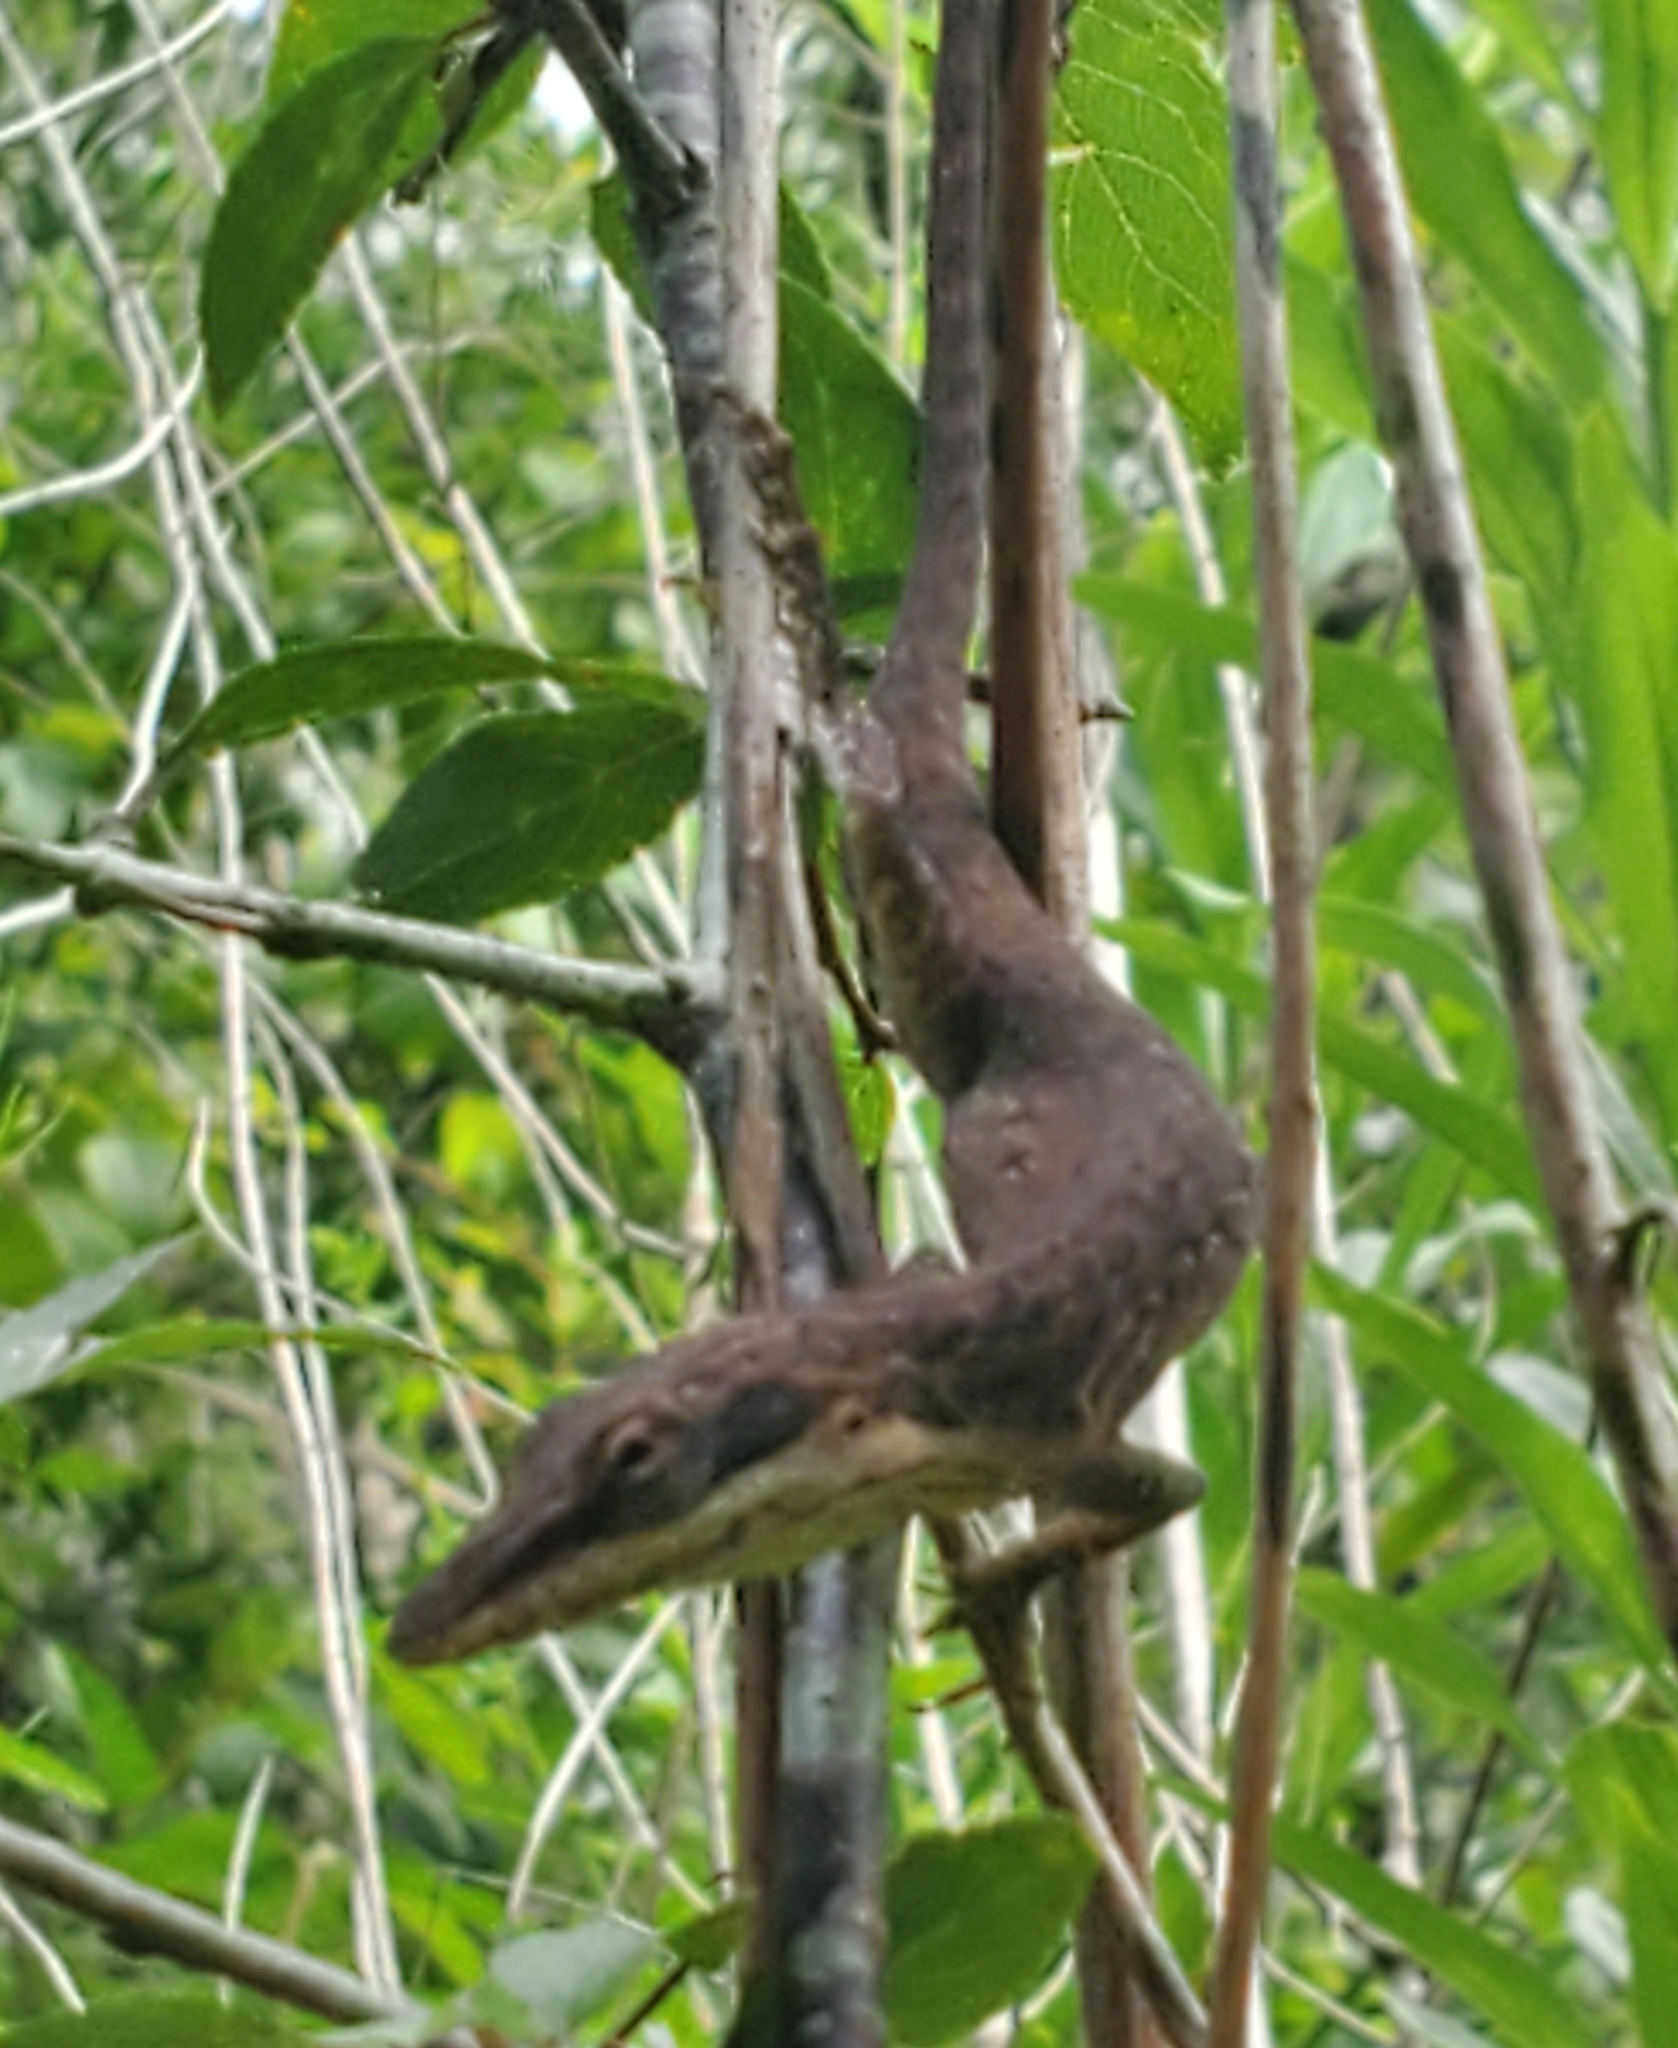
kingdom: Animalia
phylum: Chordata
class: Squamata
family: Dactyloidae
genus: Anolis
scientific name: Anolis carolinensis
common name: Green anole
